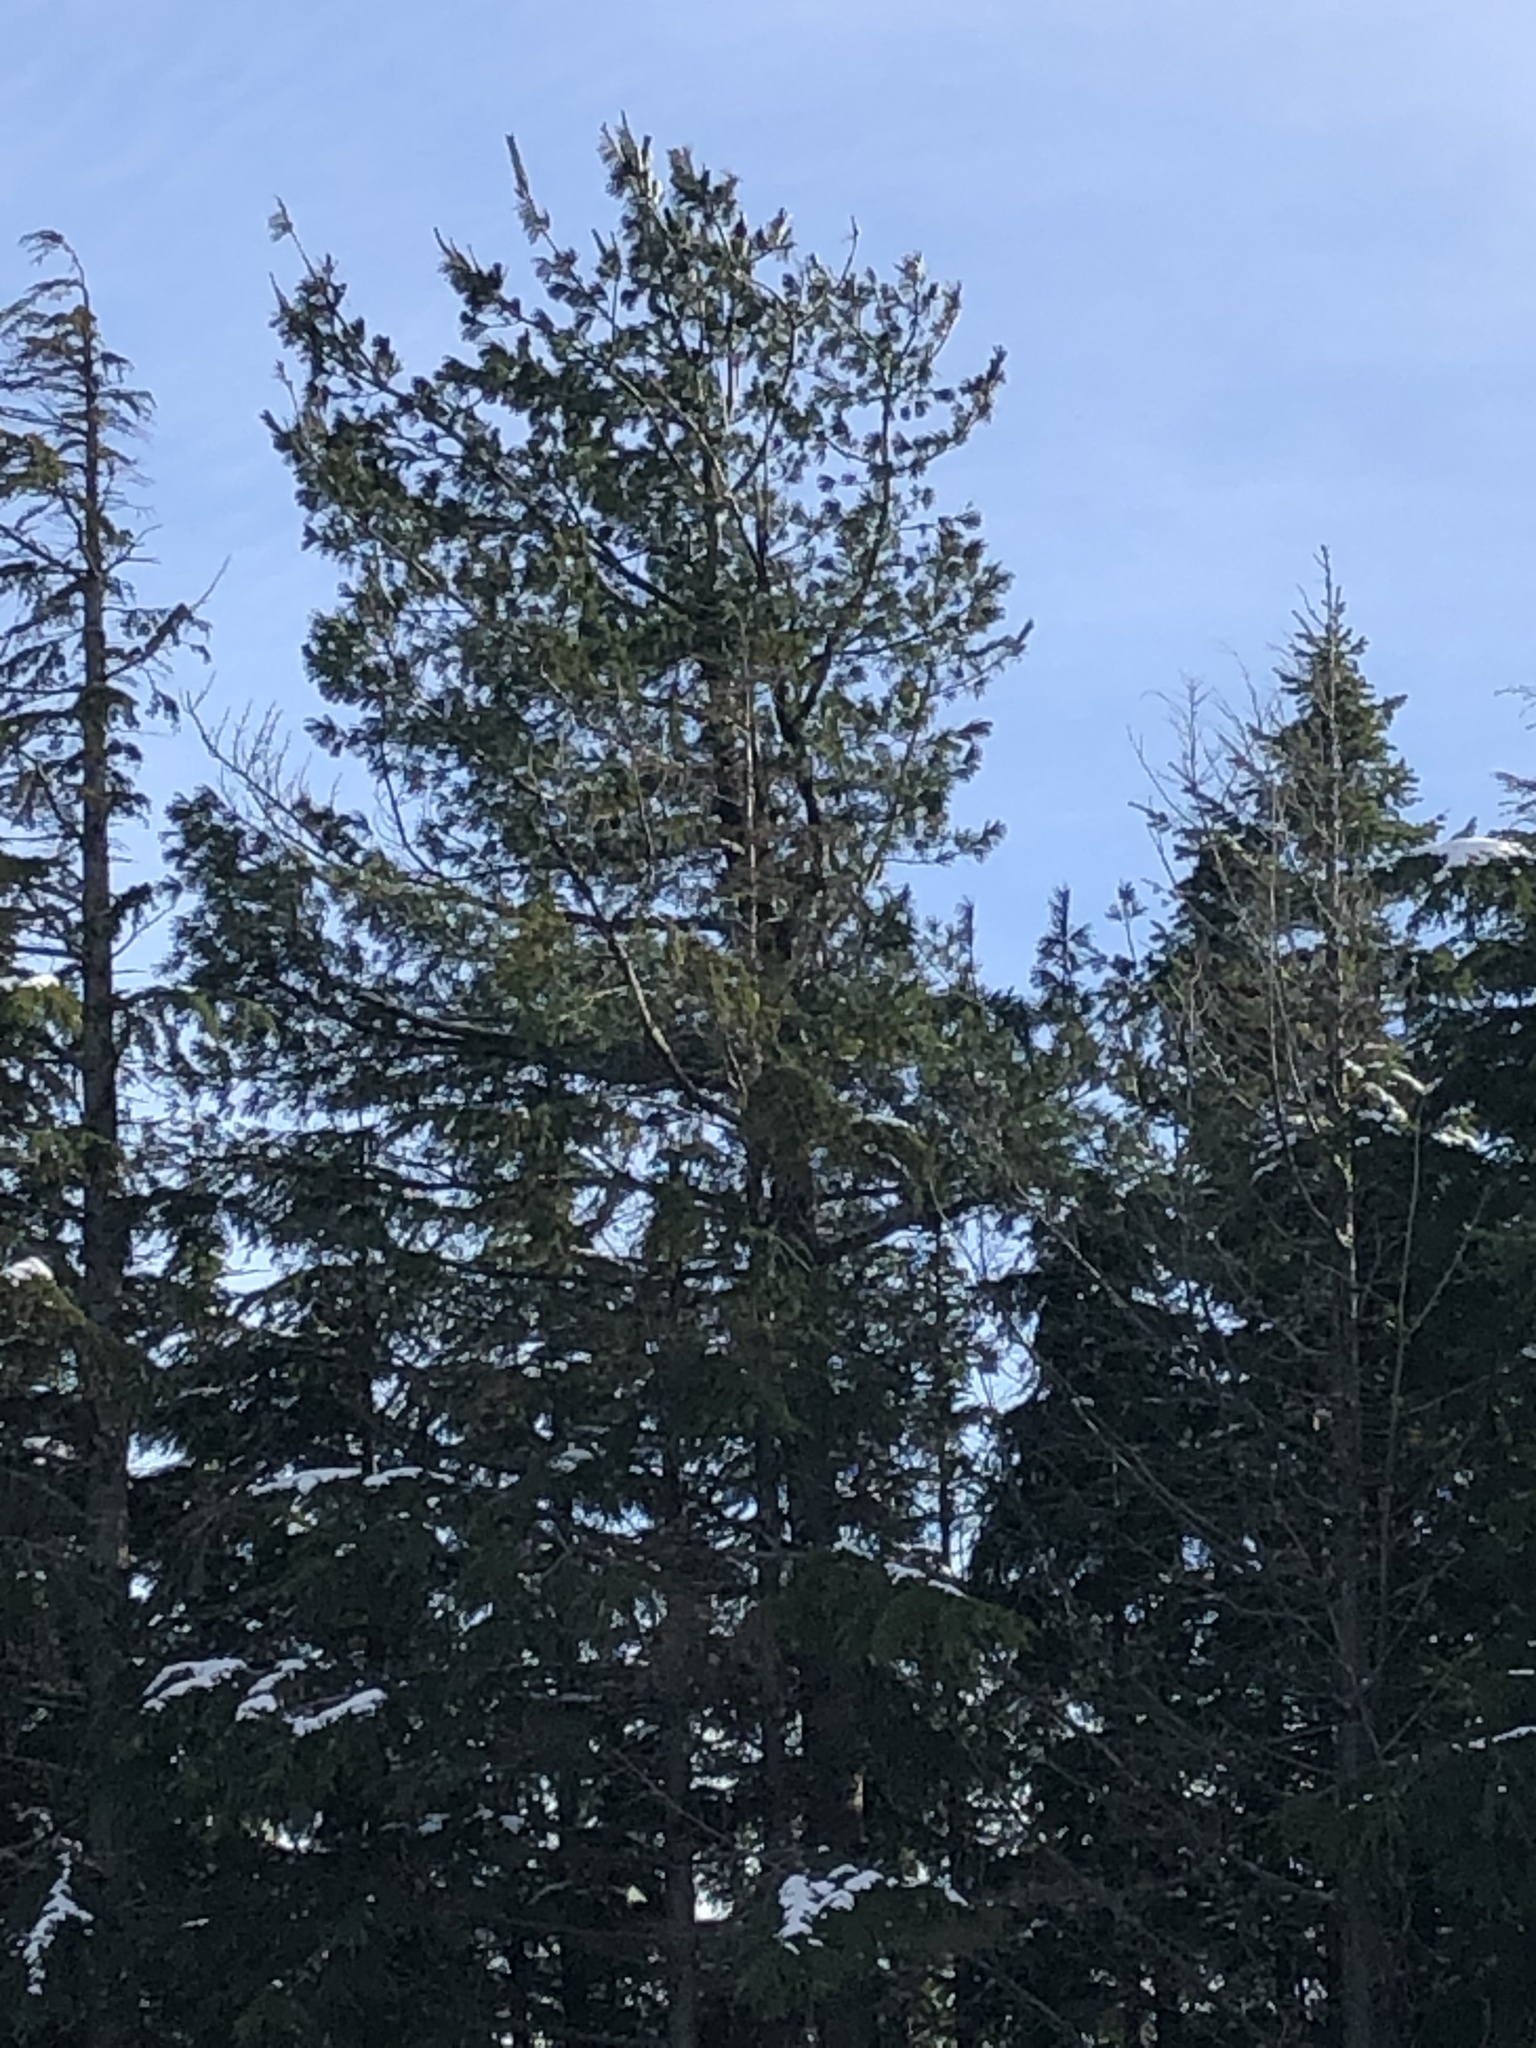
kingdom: Plantae
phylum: Tracheophyta
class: Pinopsida
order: Pinales
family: Pinaceae
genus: Pinus
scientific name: Pinus monticola
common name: Western white pine
